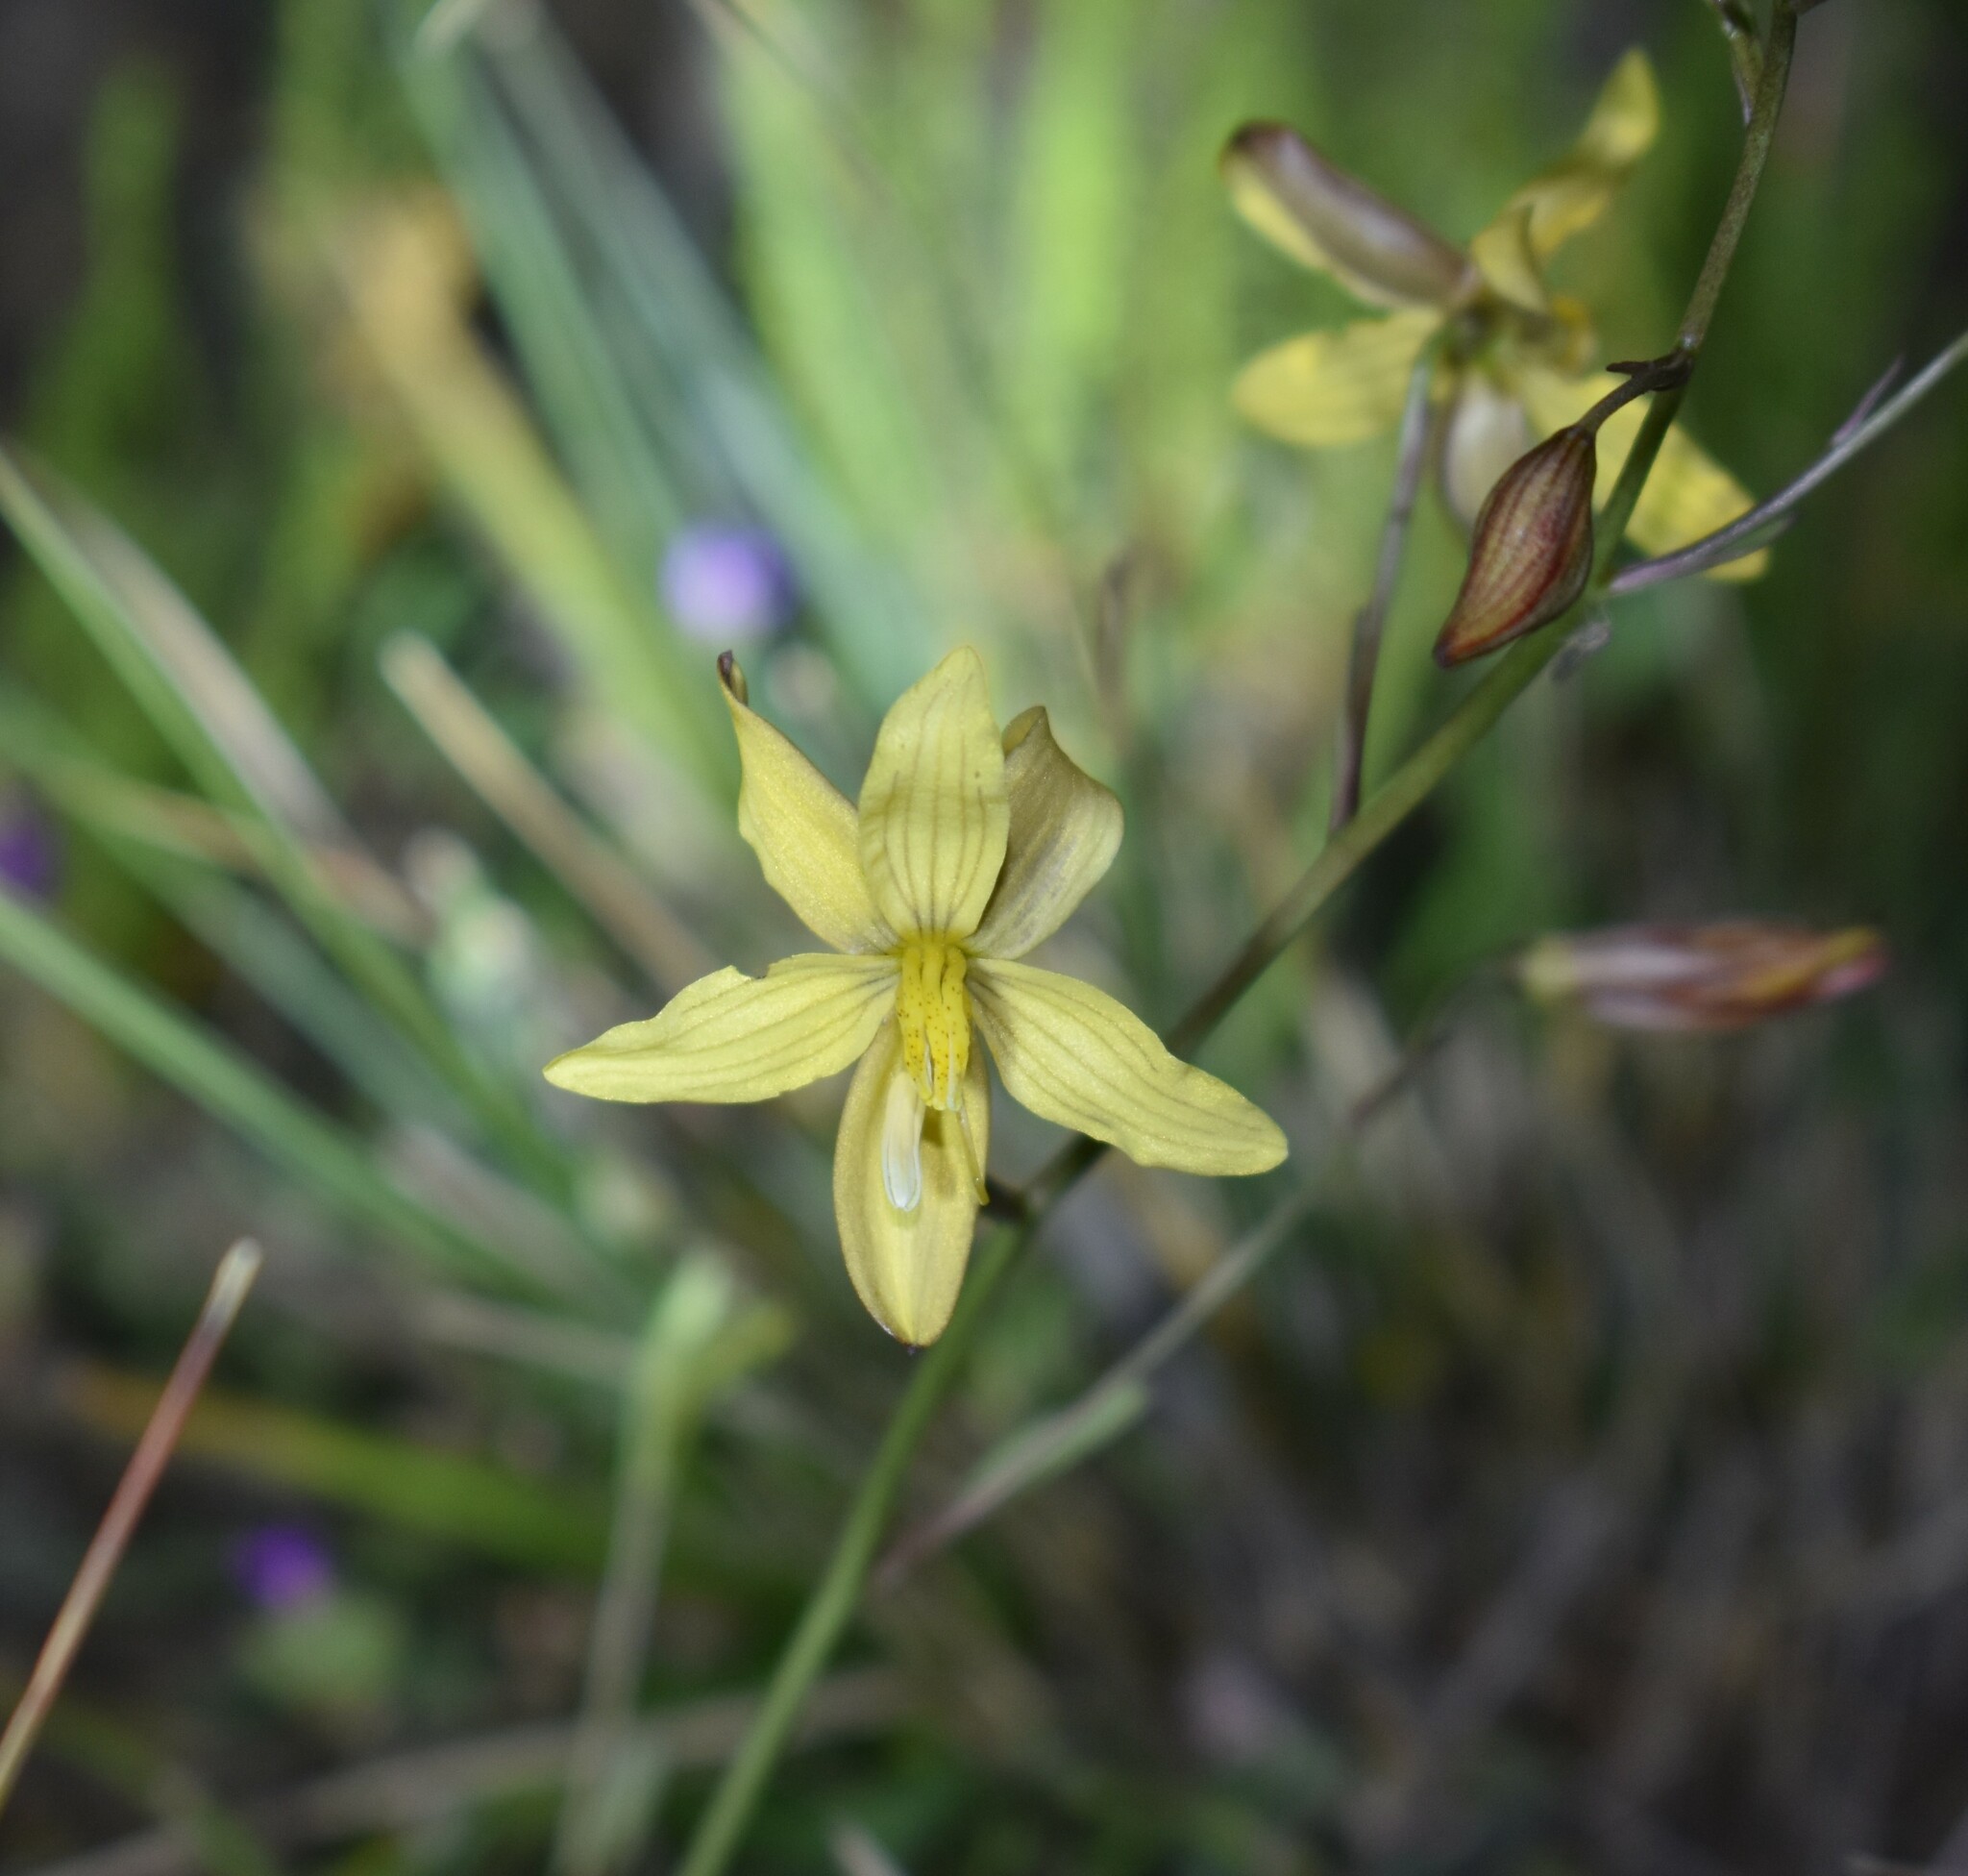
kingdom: Plantae
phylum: Tracheophyta
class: Liliopsida
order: Asparagales
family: Tecophilaeaceae
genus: Cyanella
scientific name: Cyanella lutea
